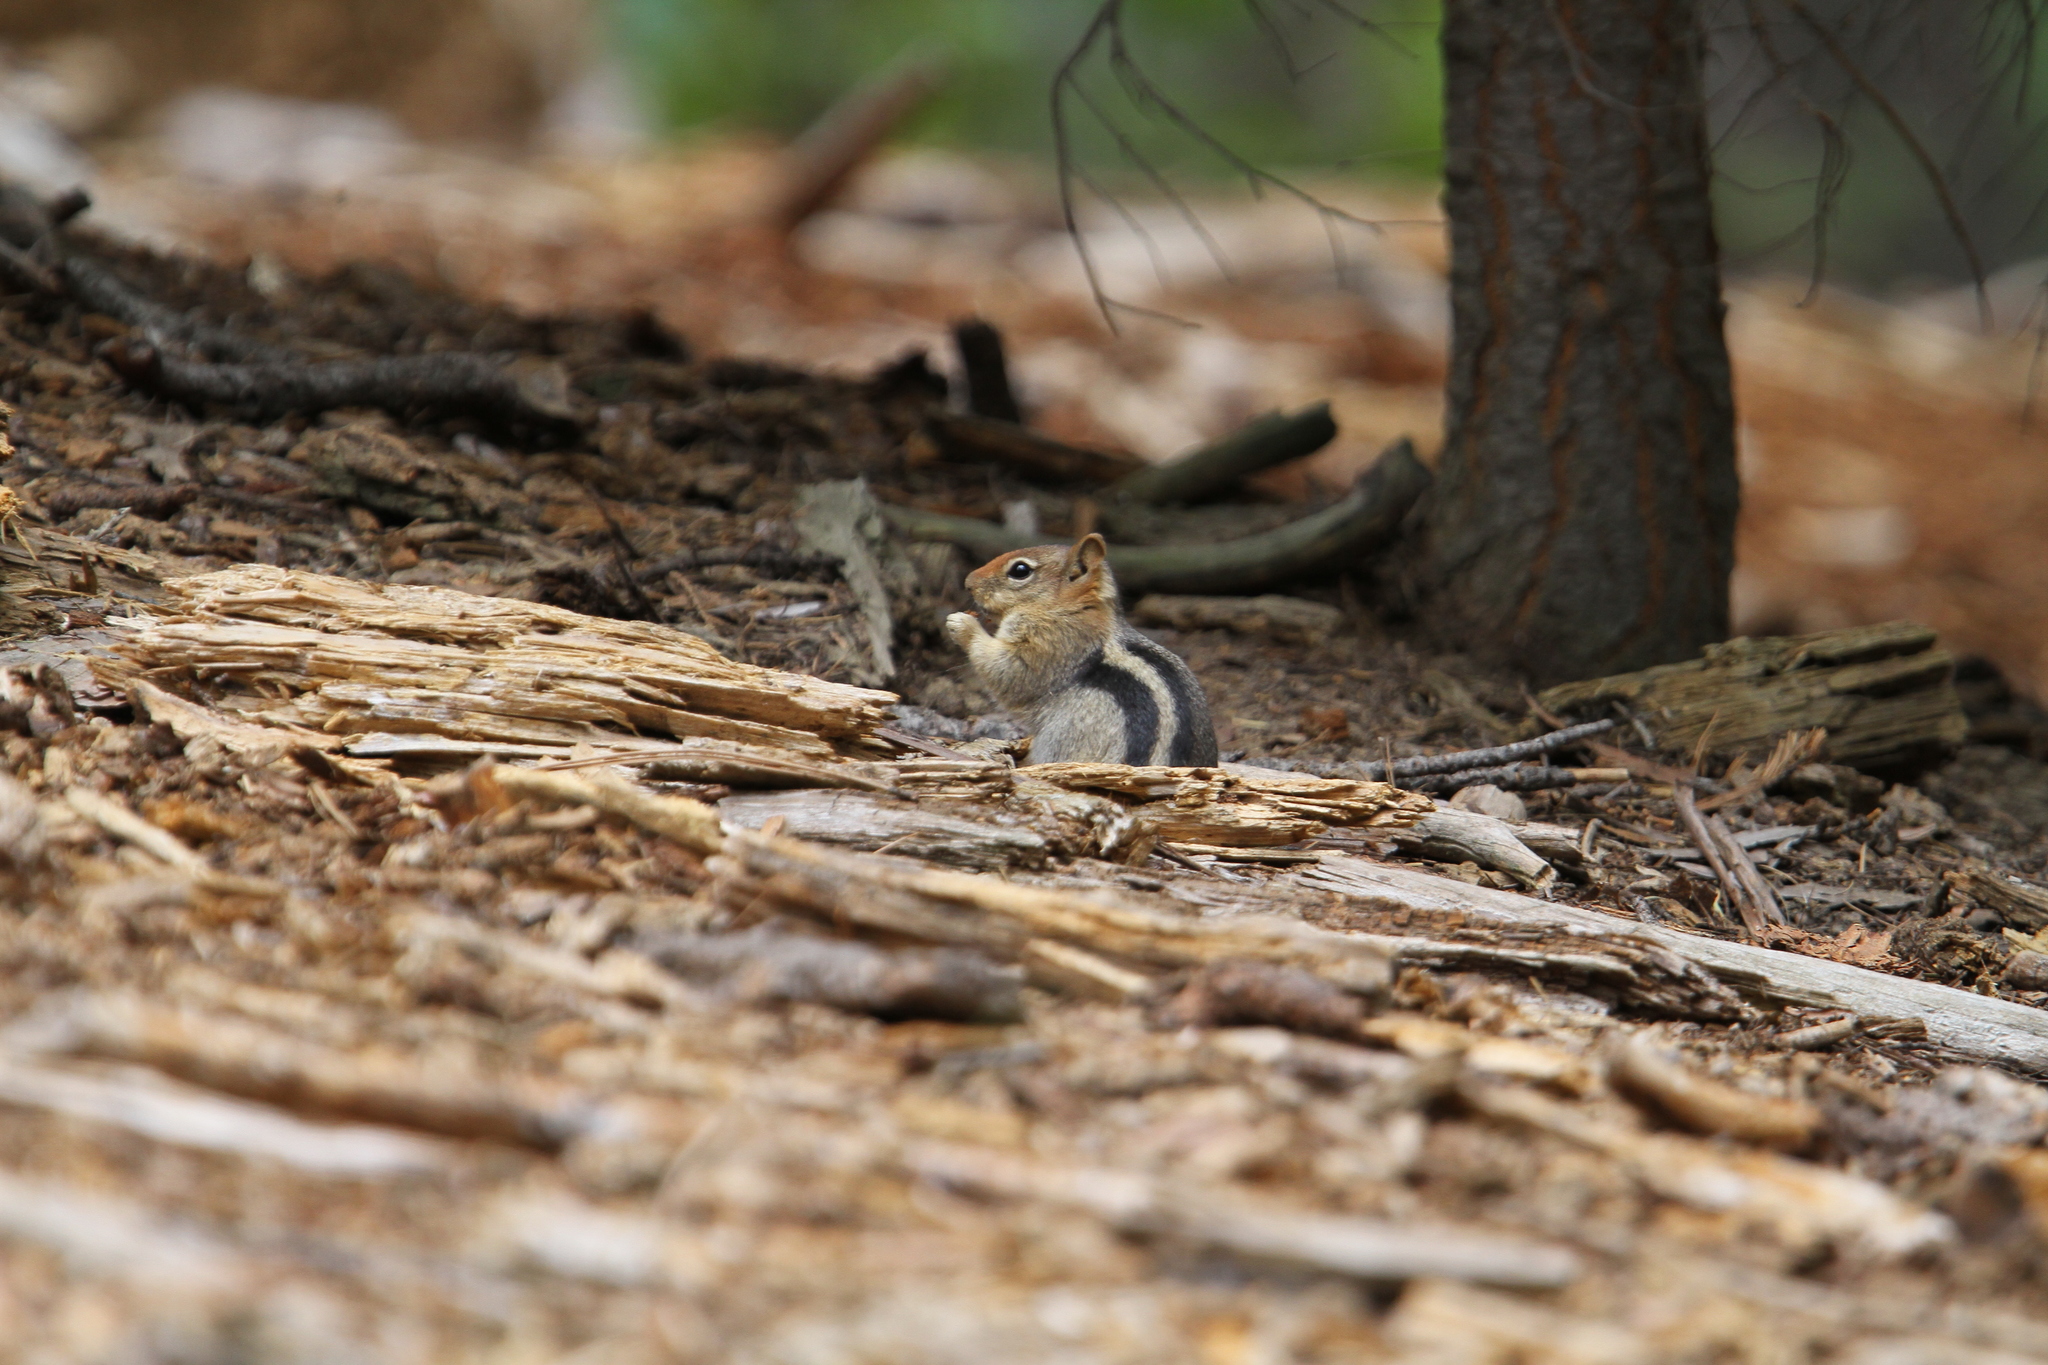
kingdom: Animalia
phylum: Chordata
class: Mammalia
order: Rodentia
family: Sciuridae
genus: Callospermophilus
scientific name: Callospermophilus lateralis
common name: Golden-mantled ground squirrel
